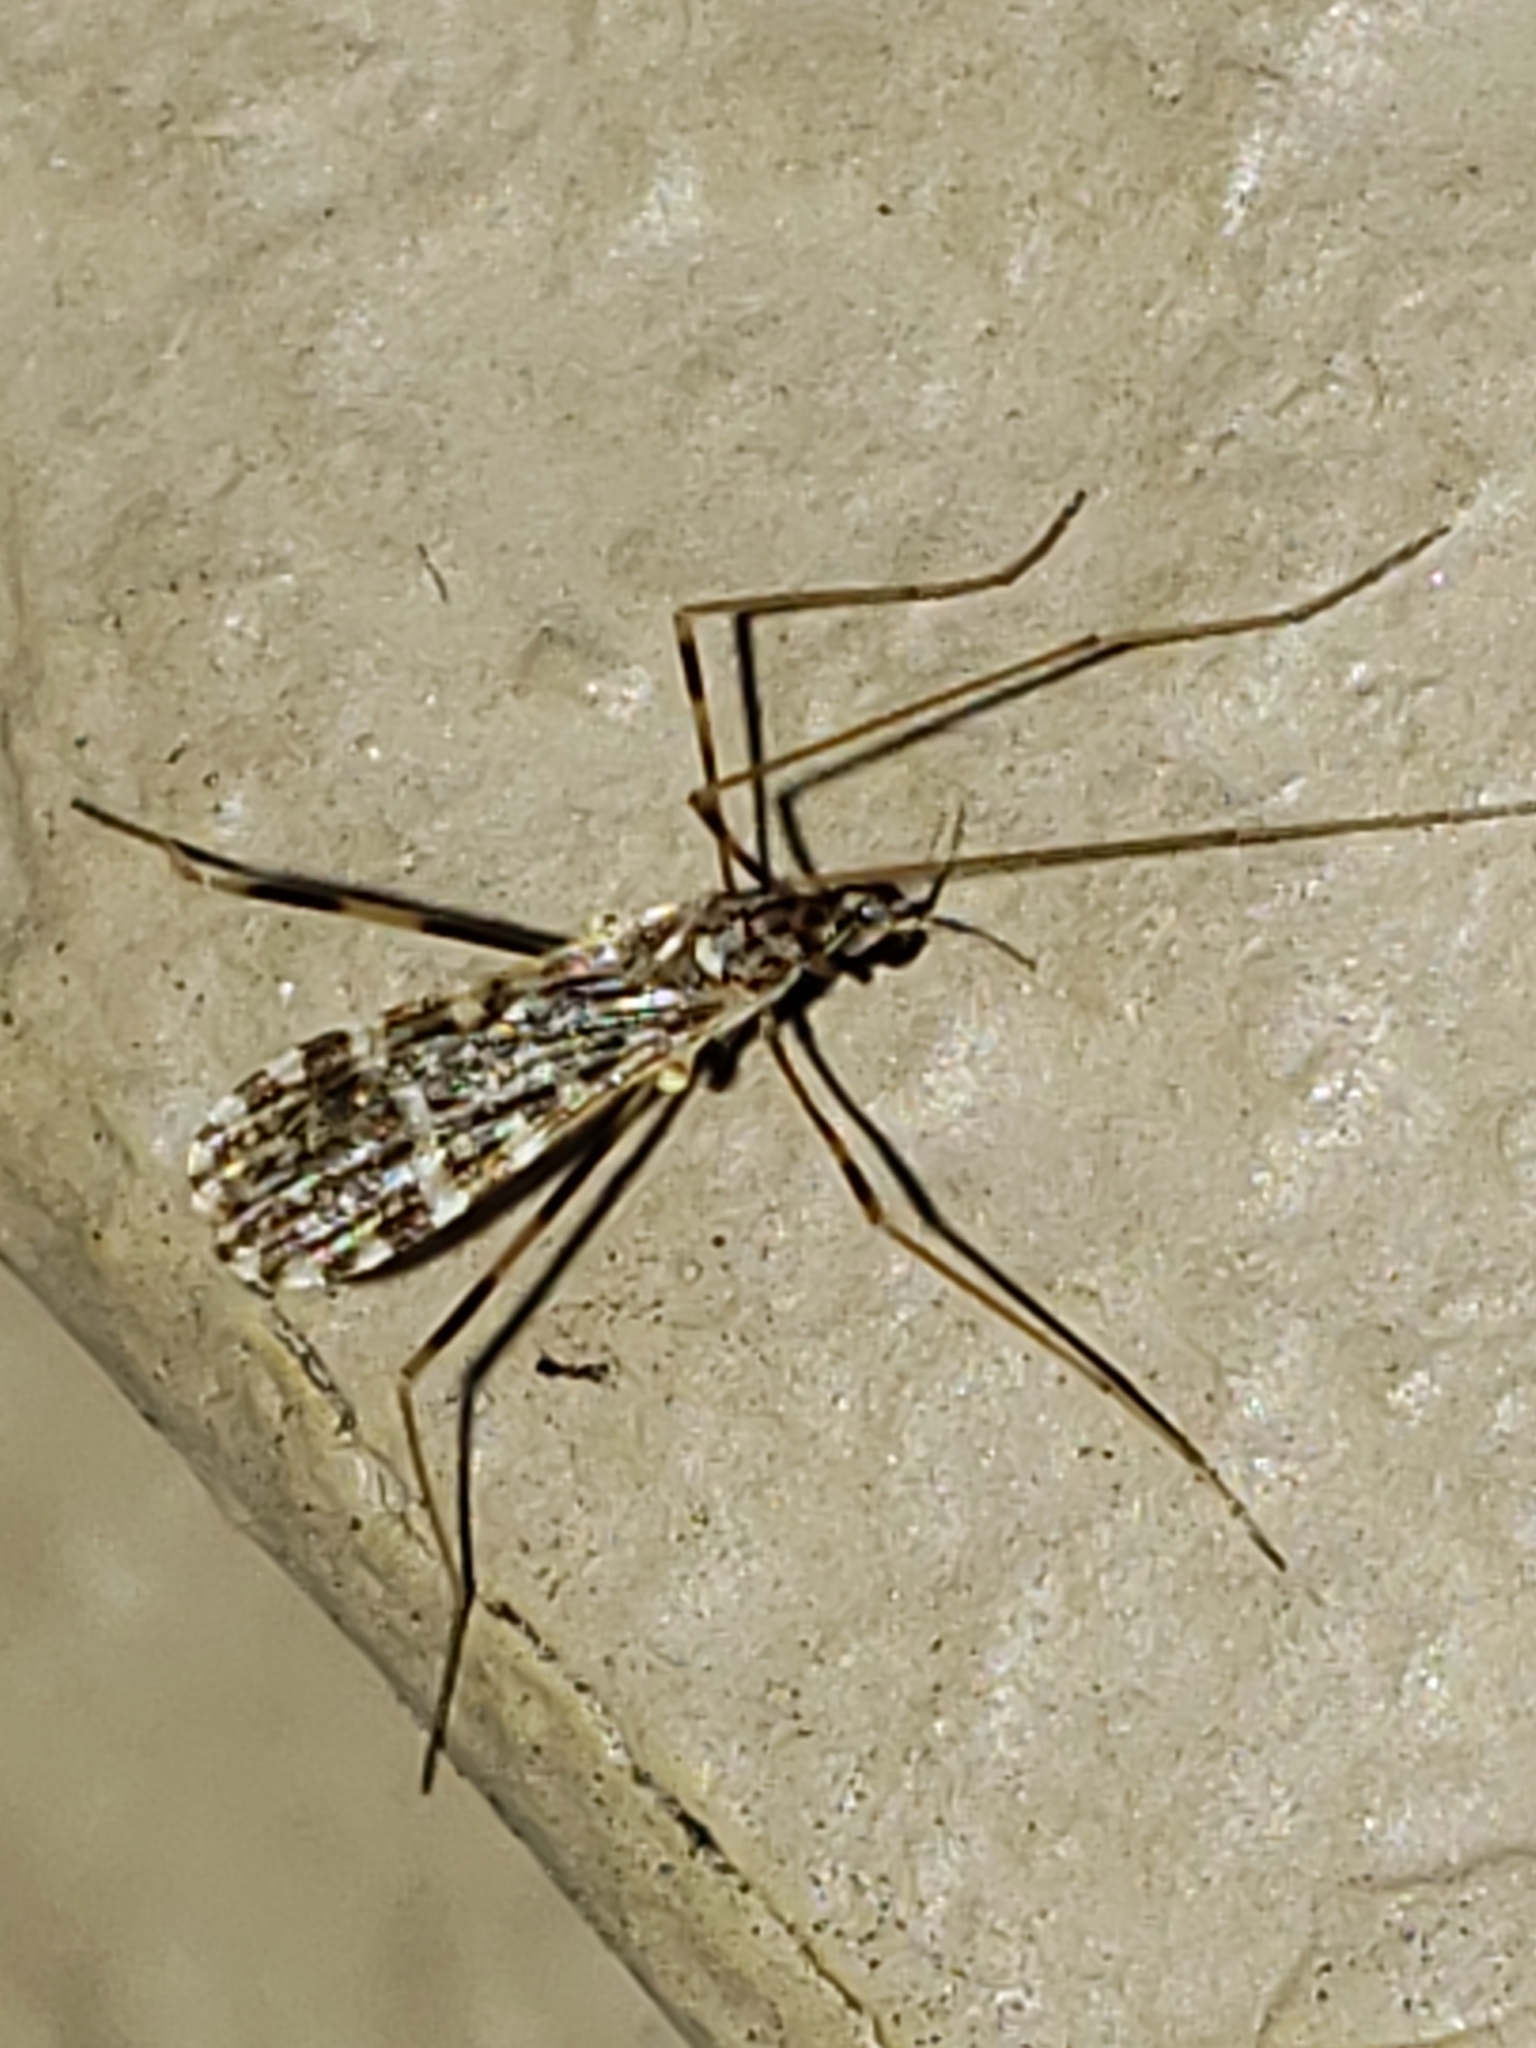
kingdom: Animalia
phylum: Arthropoda
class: Insecta
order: Diptera
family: Limoniidae
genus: Erioptera
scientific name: Erioptera caliptera
